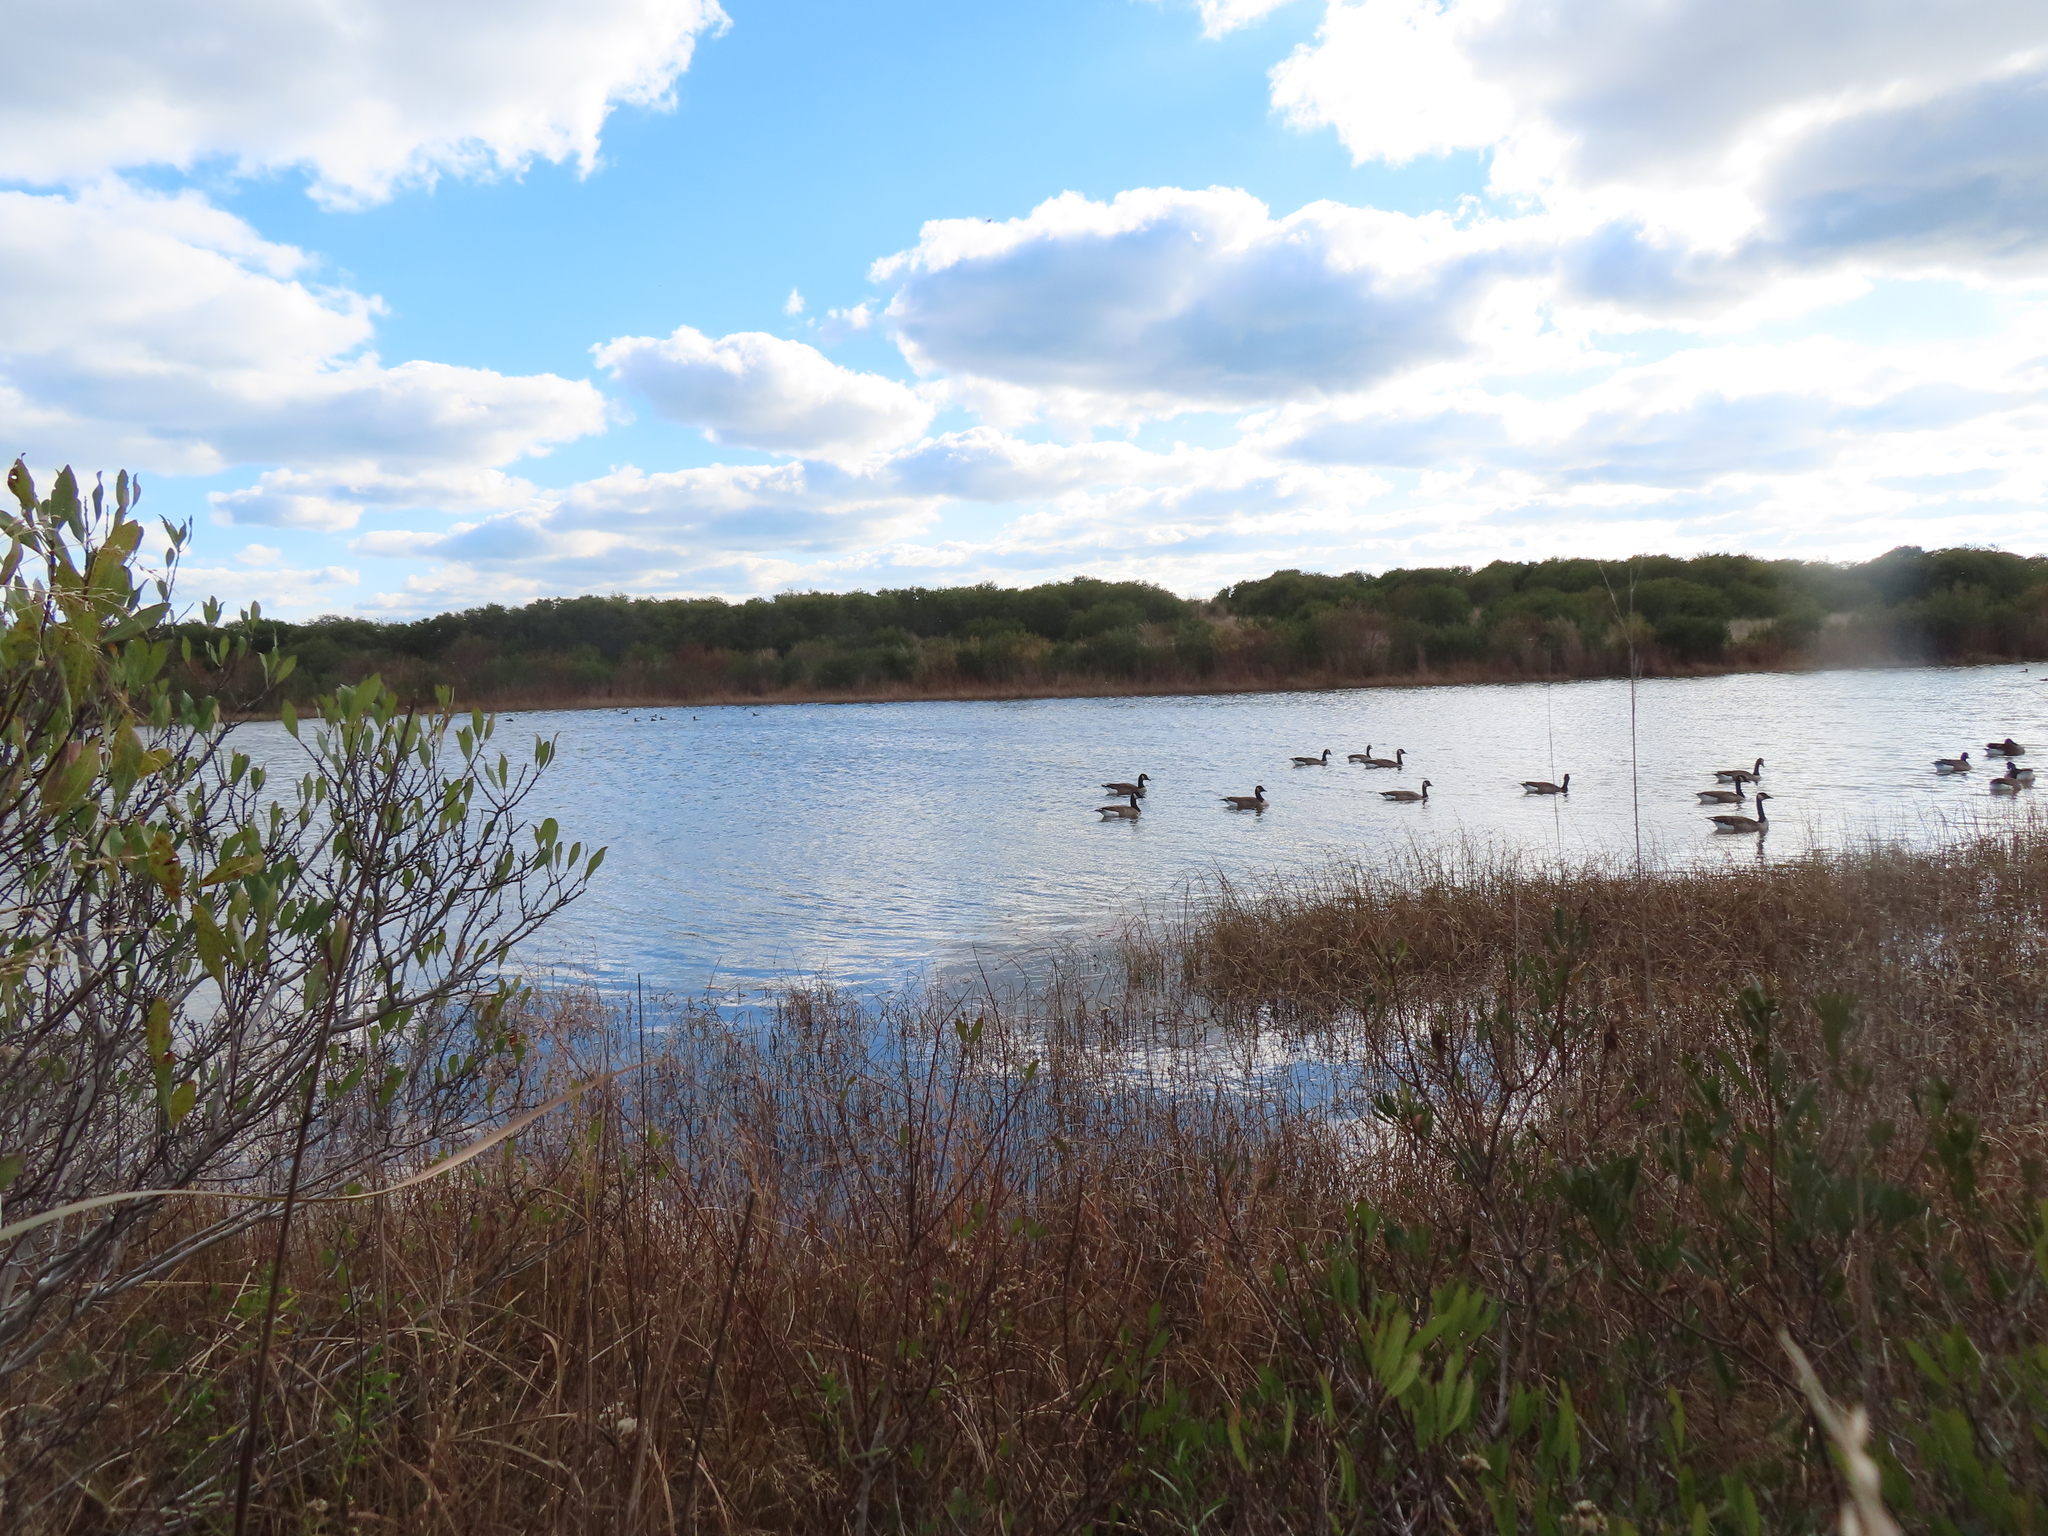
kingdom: Animalia
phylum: Chordata
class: Aves
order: Anseriformes
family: Anatidae
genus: Branta
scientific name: Branta canadensis
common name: Canada goose
